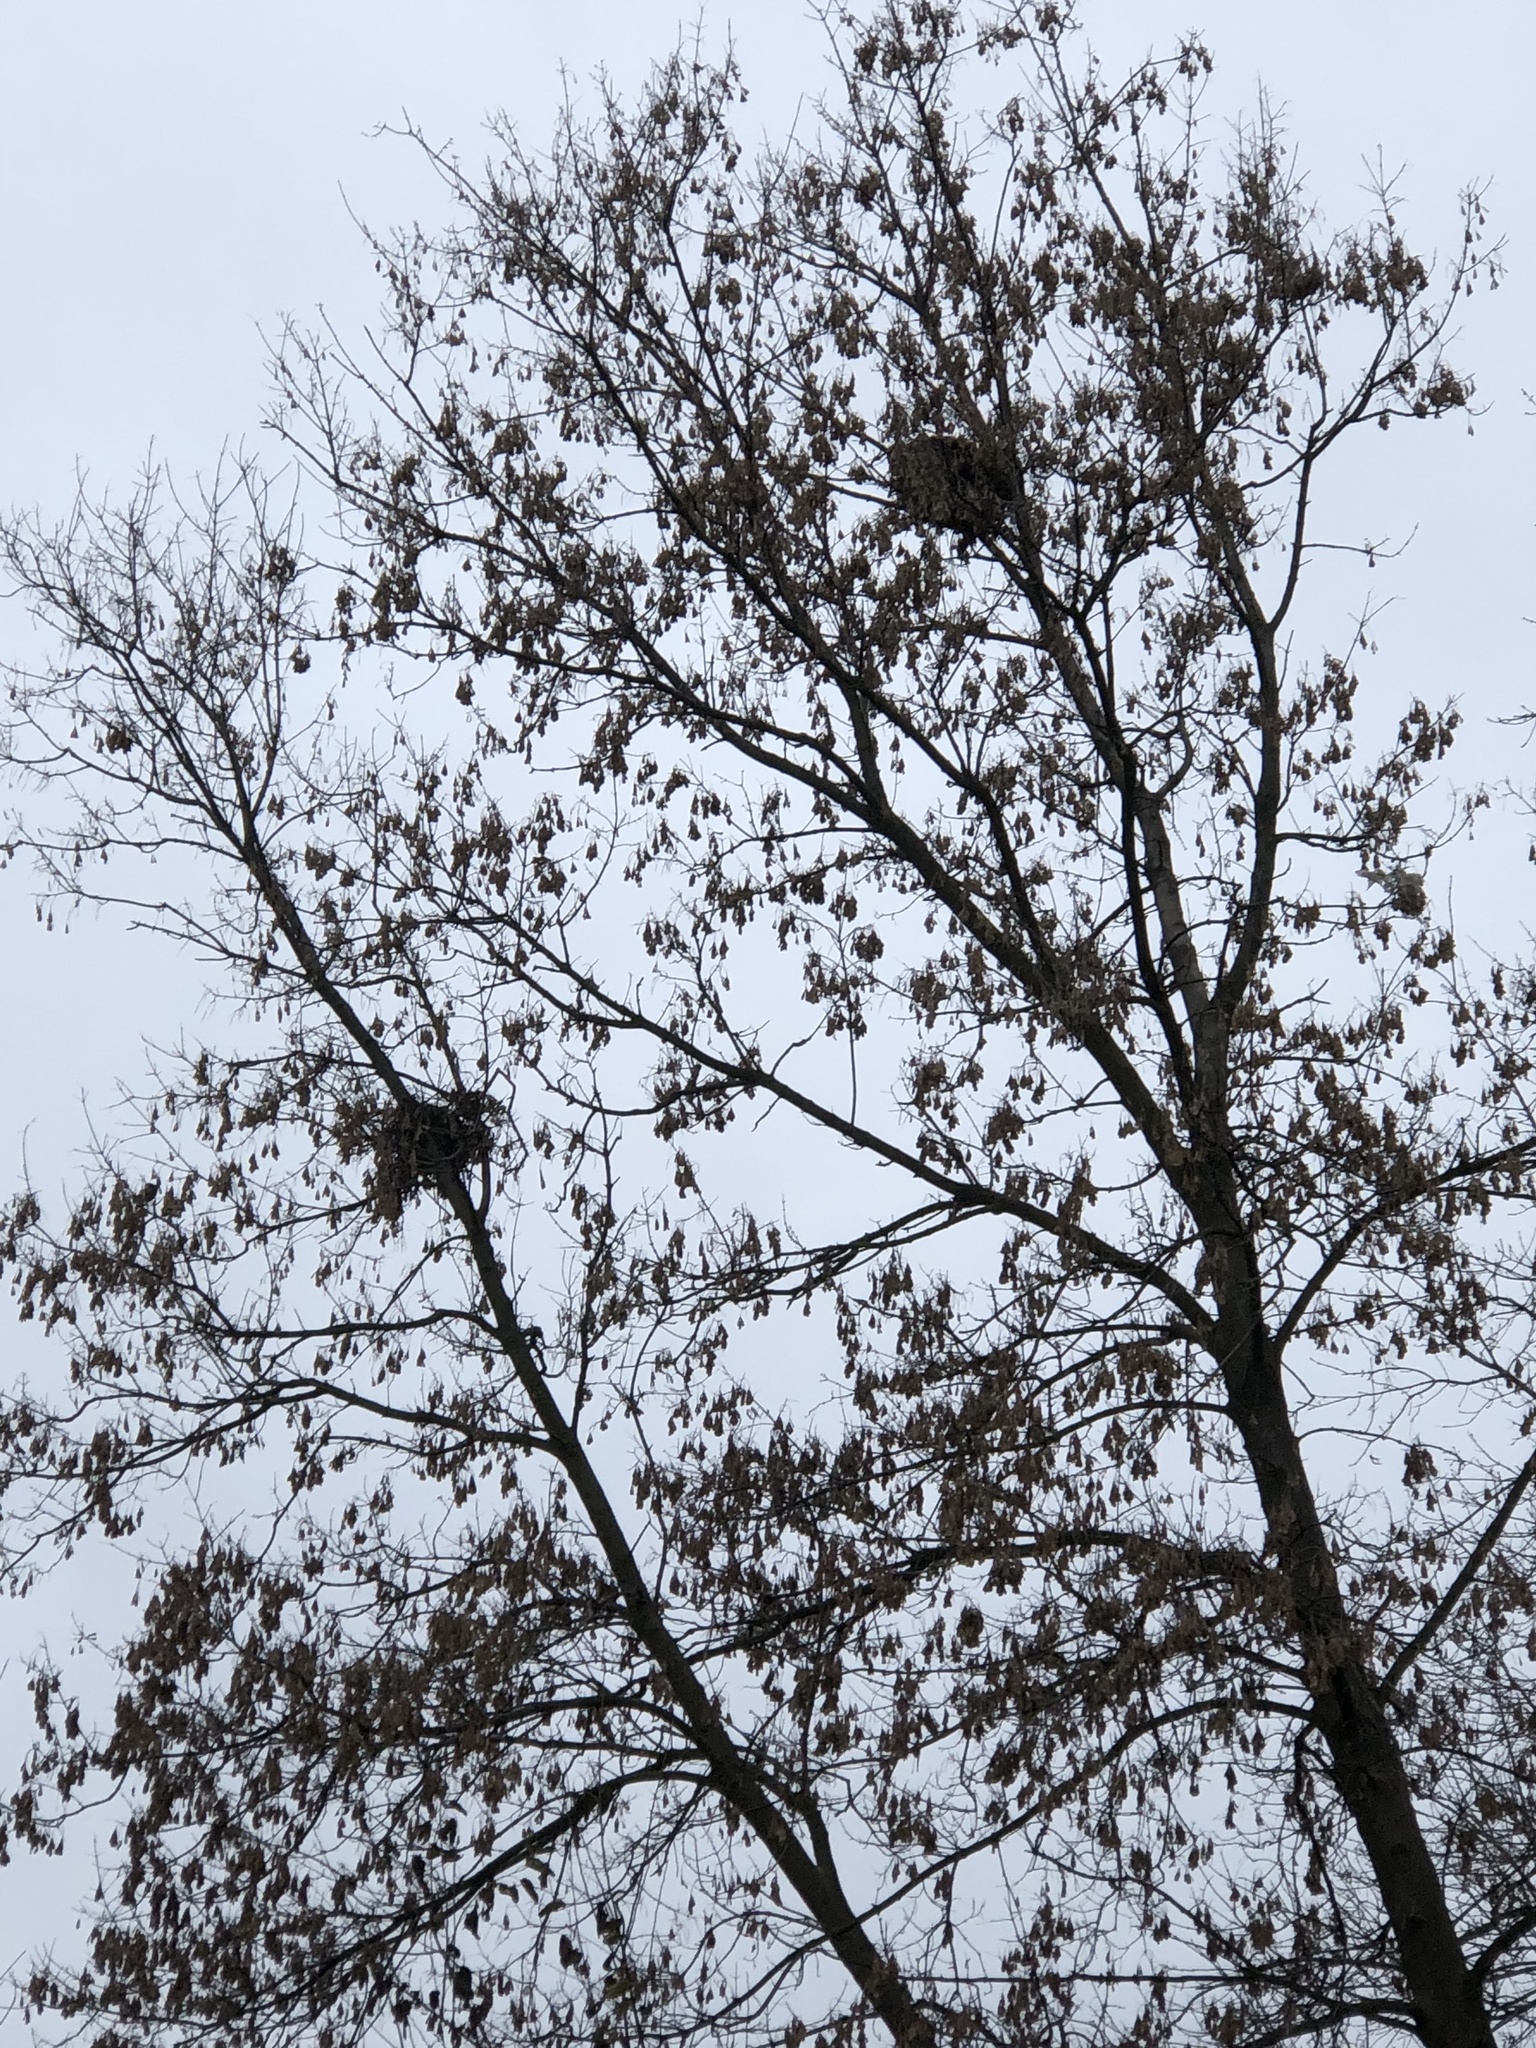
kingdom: Animalia
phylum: Chordata
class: Mammalia
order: Rodentia
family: Sciuridae
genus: Sciurus
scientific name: Sciurus carolinensis
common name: Eastern gray squirrel
